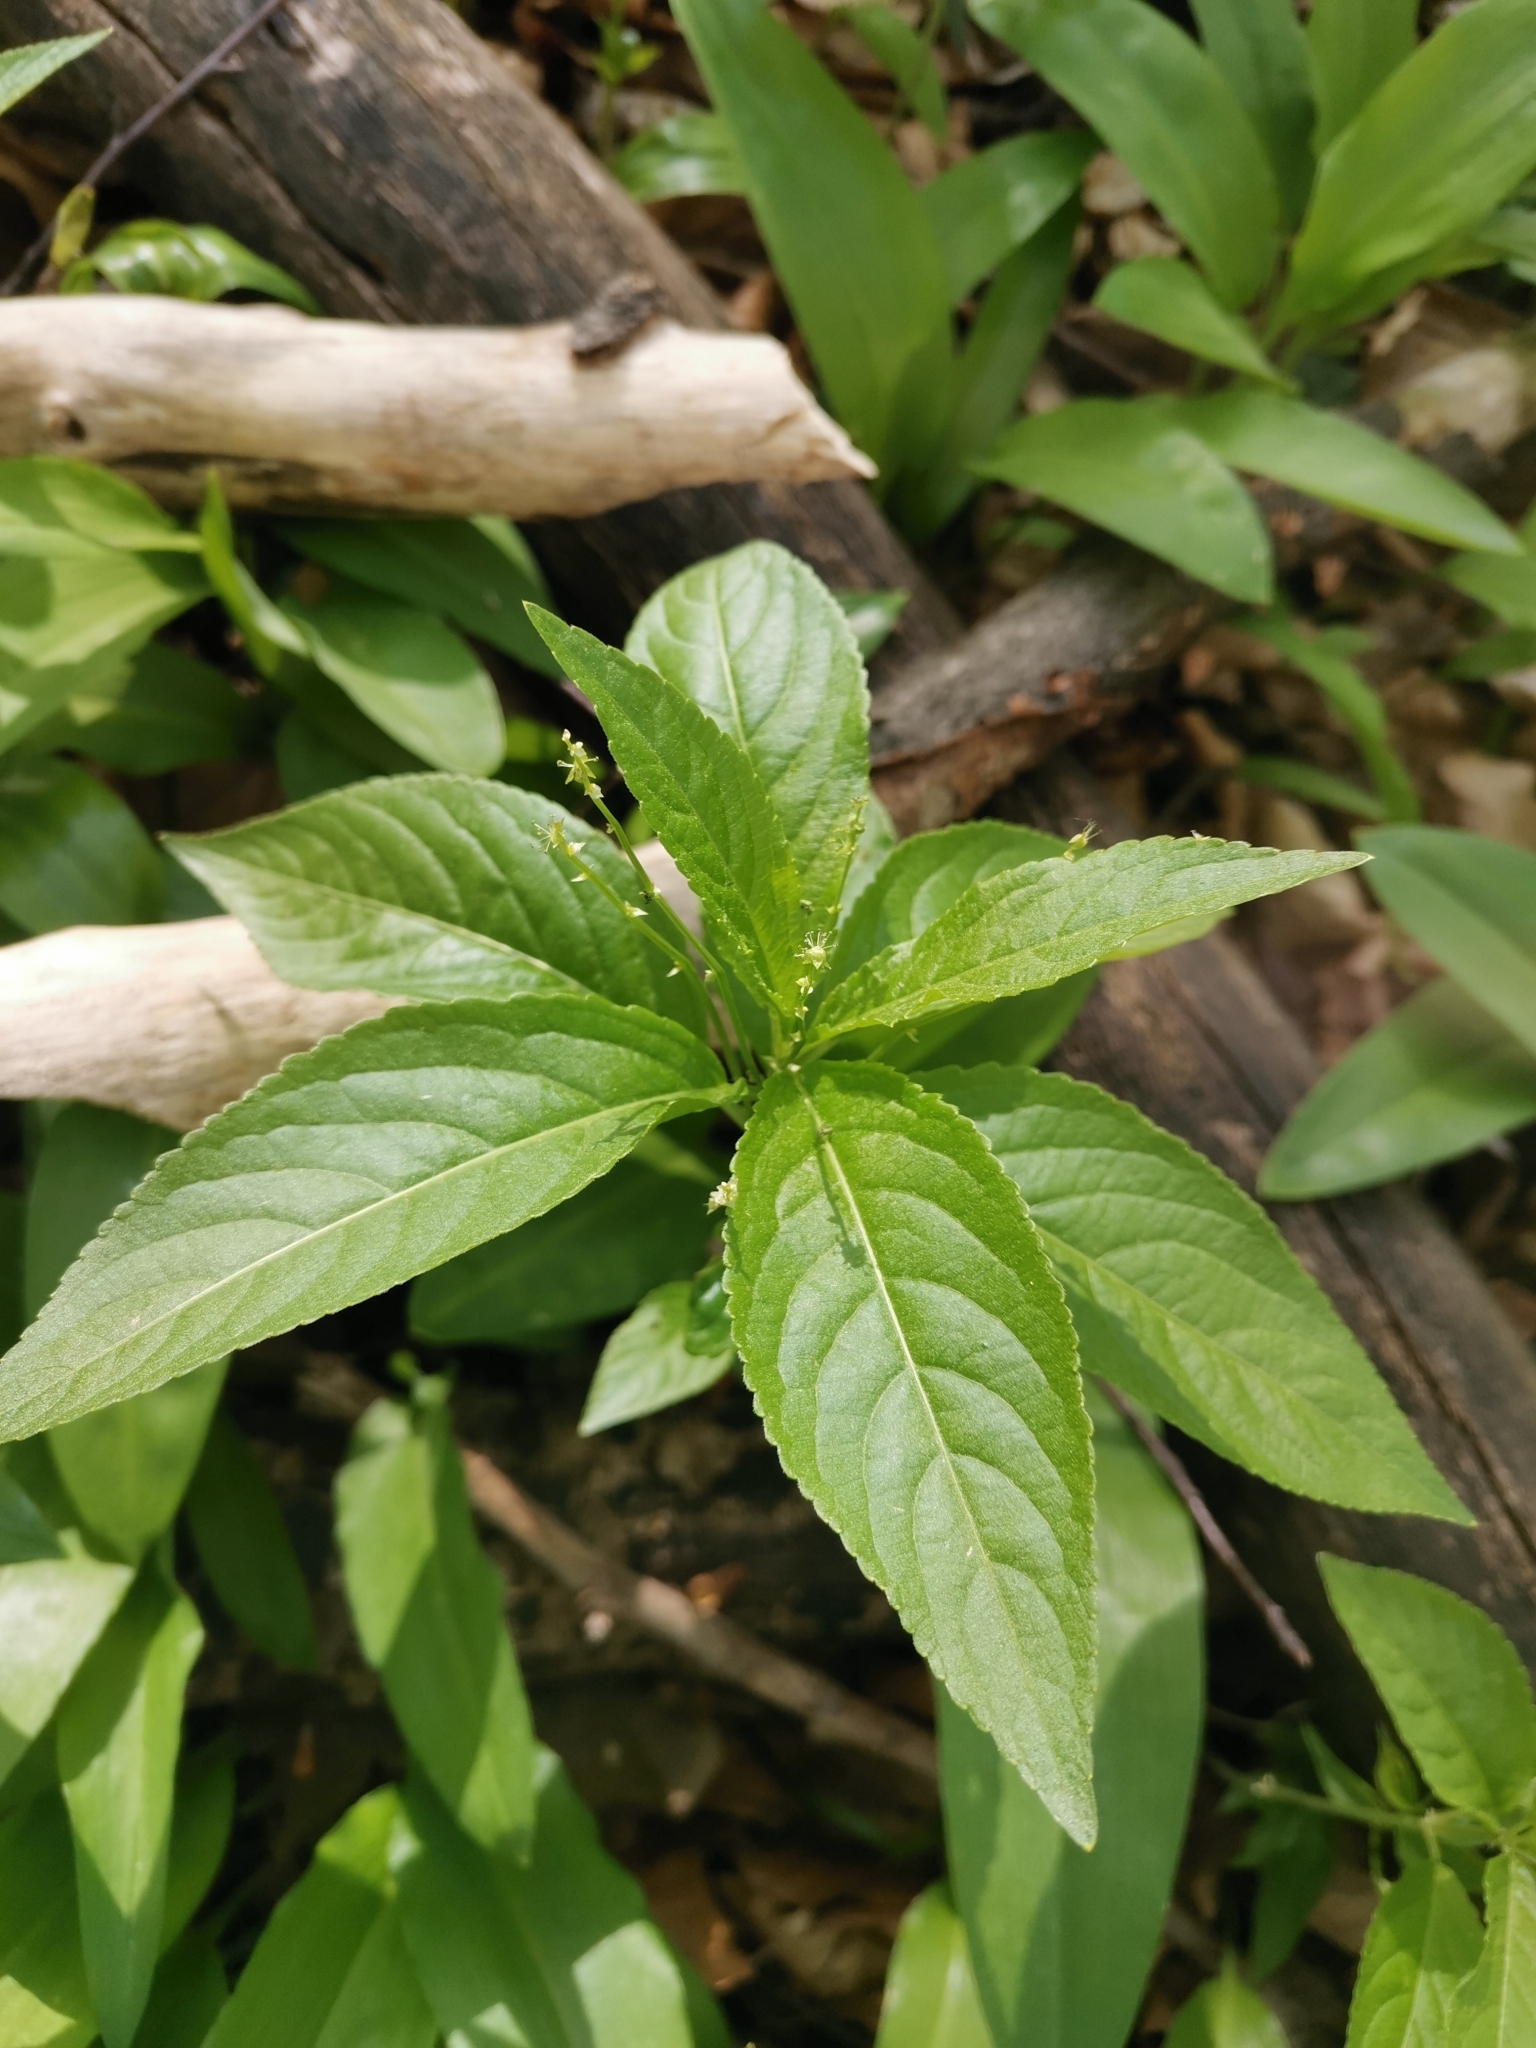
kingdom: Plantae
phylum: Tracheophyta
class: Magnoliopsida
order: Malpighiales
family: Euphorbiaceae
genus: Mercurialis
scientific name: Mercurialis perennis
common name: Dog mercury
